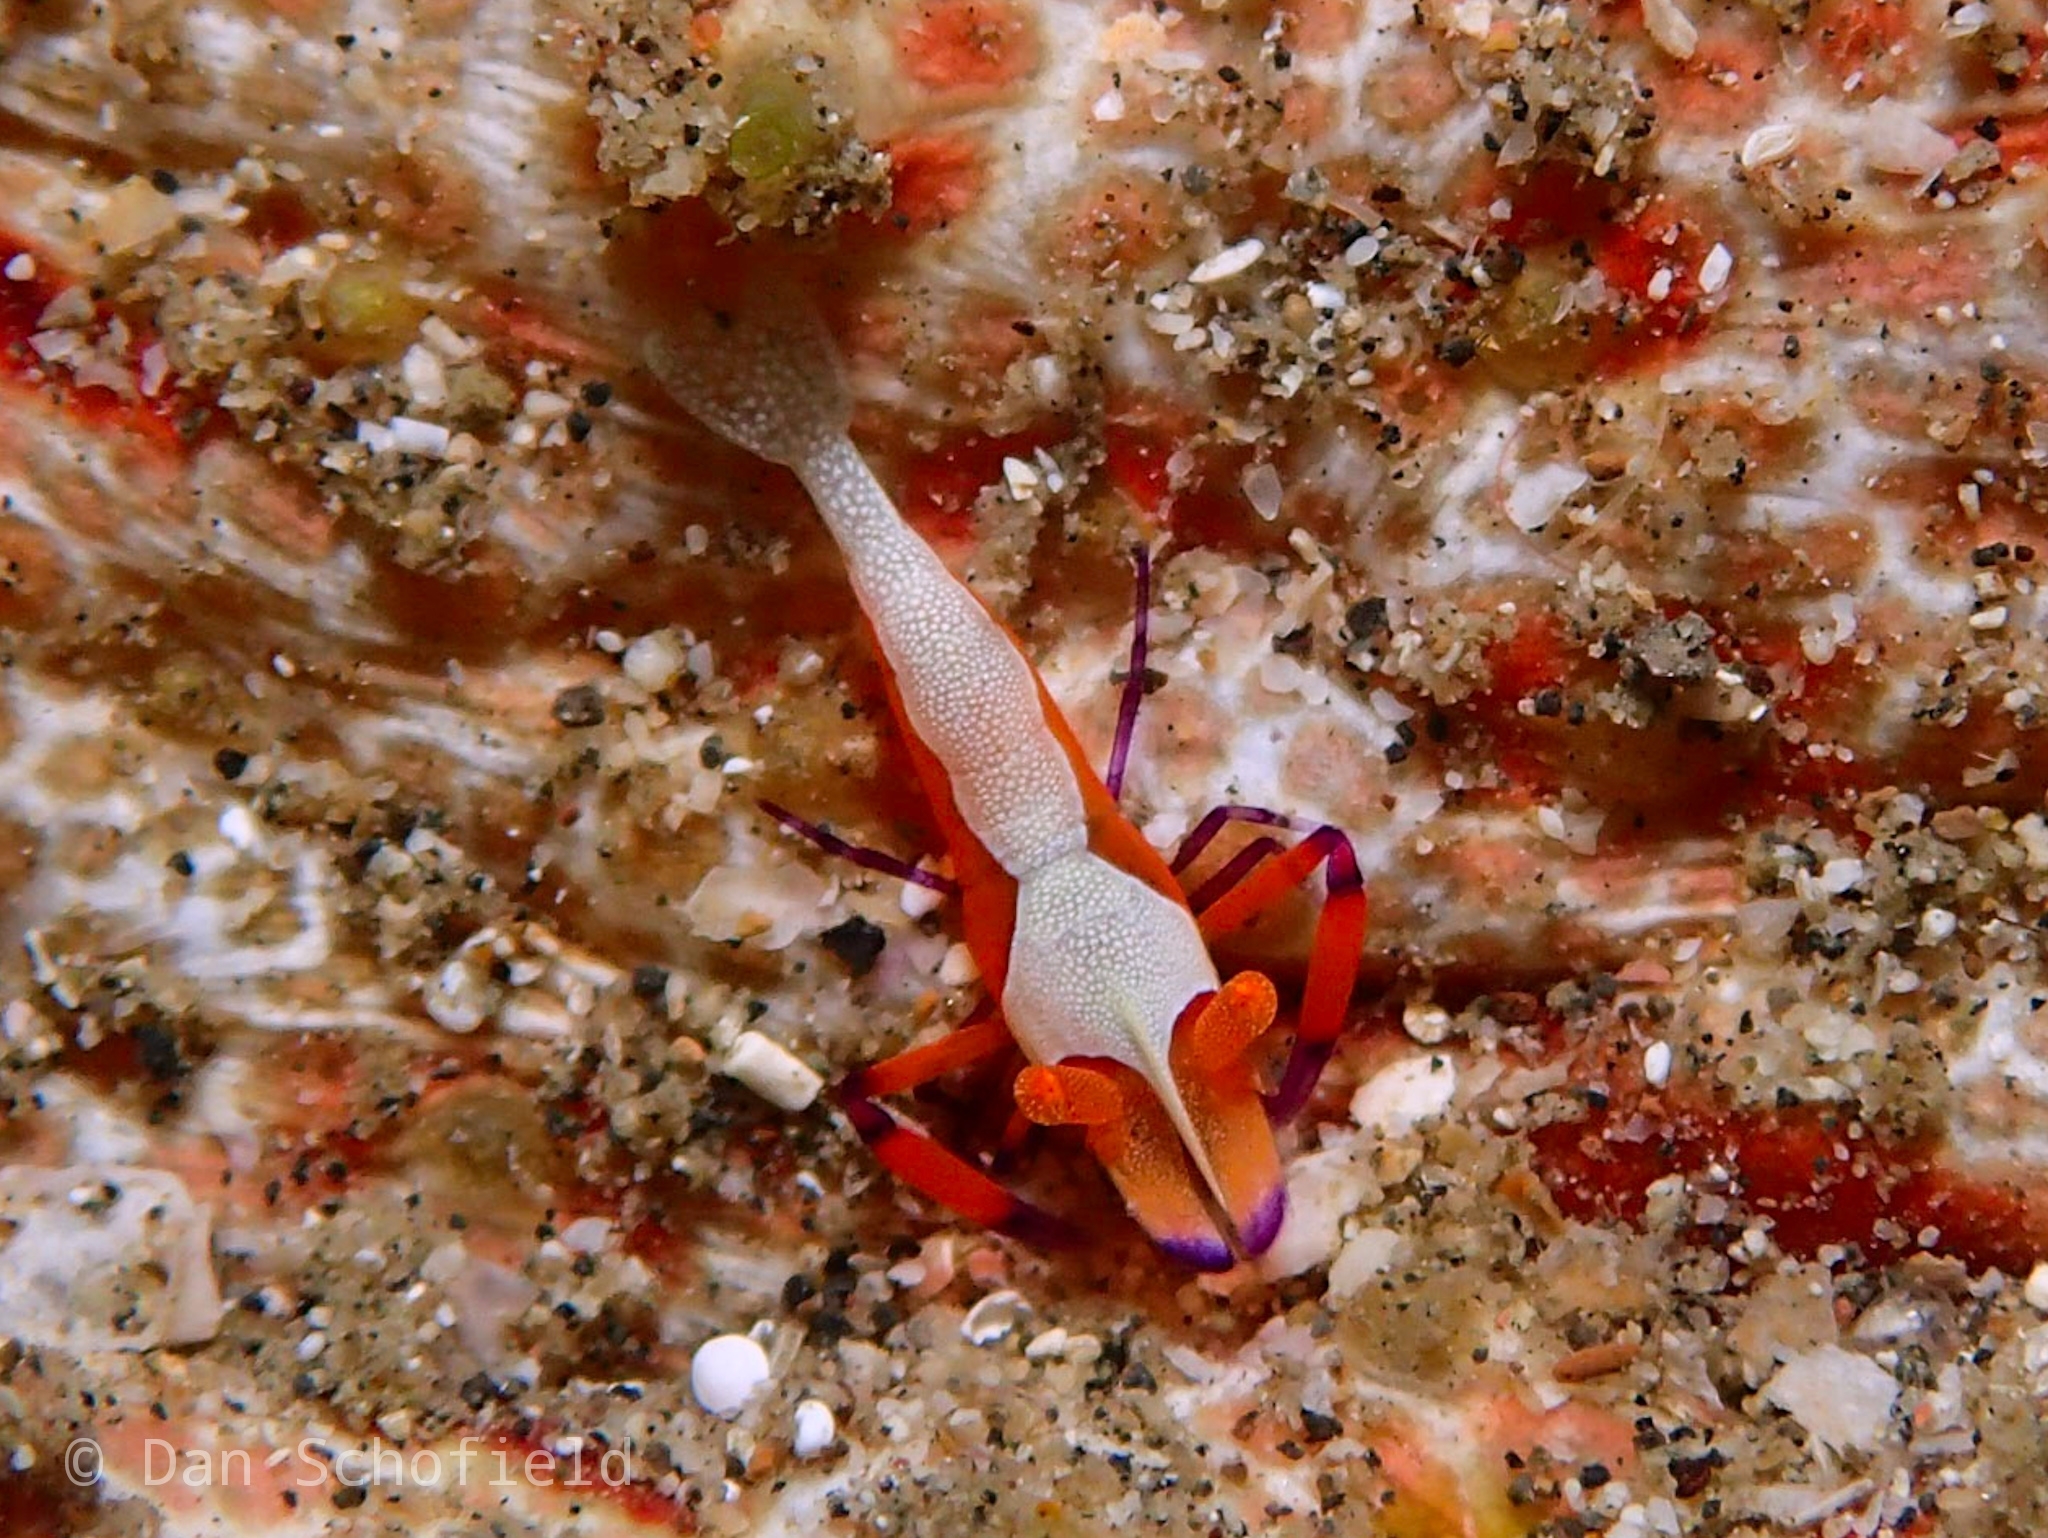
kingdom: Animalia
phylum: Arthropoda
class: Malacostraca
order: Decapoda
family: Palaemonidae
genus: Periclimenes
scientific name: Periclimenes rex
